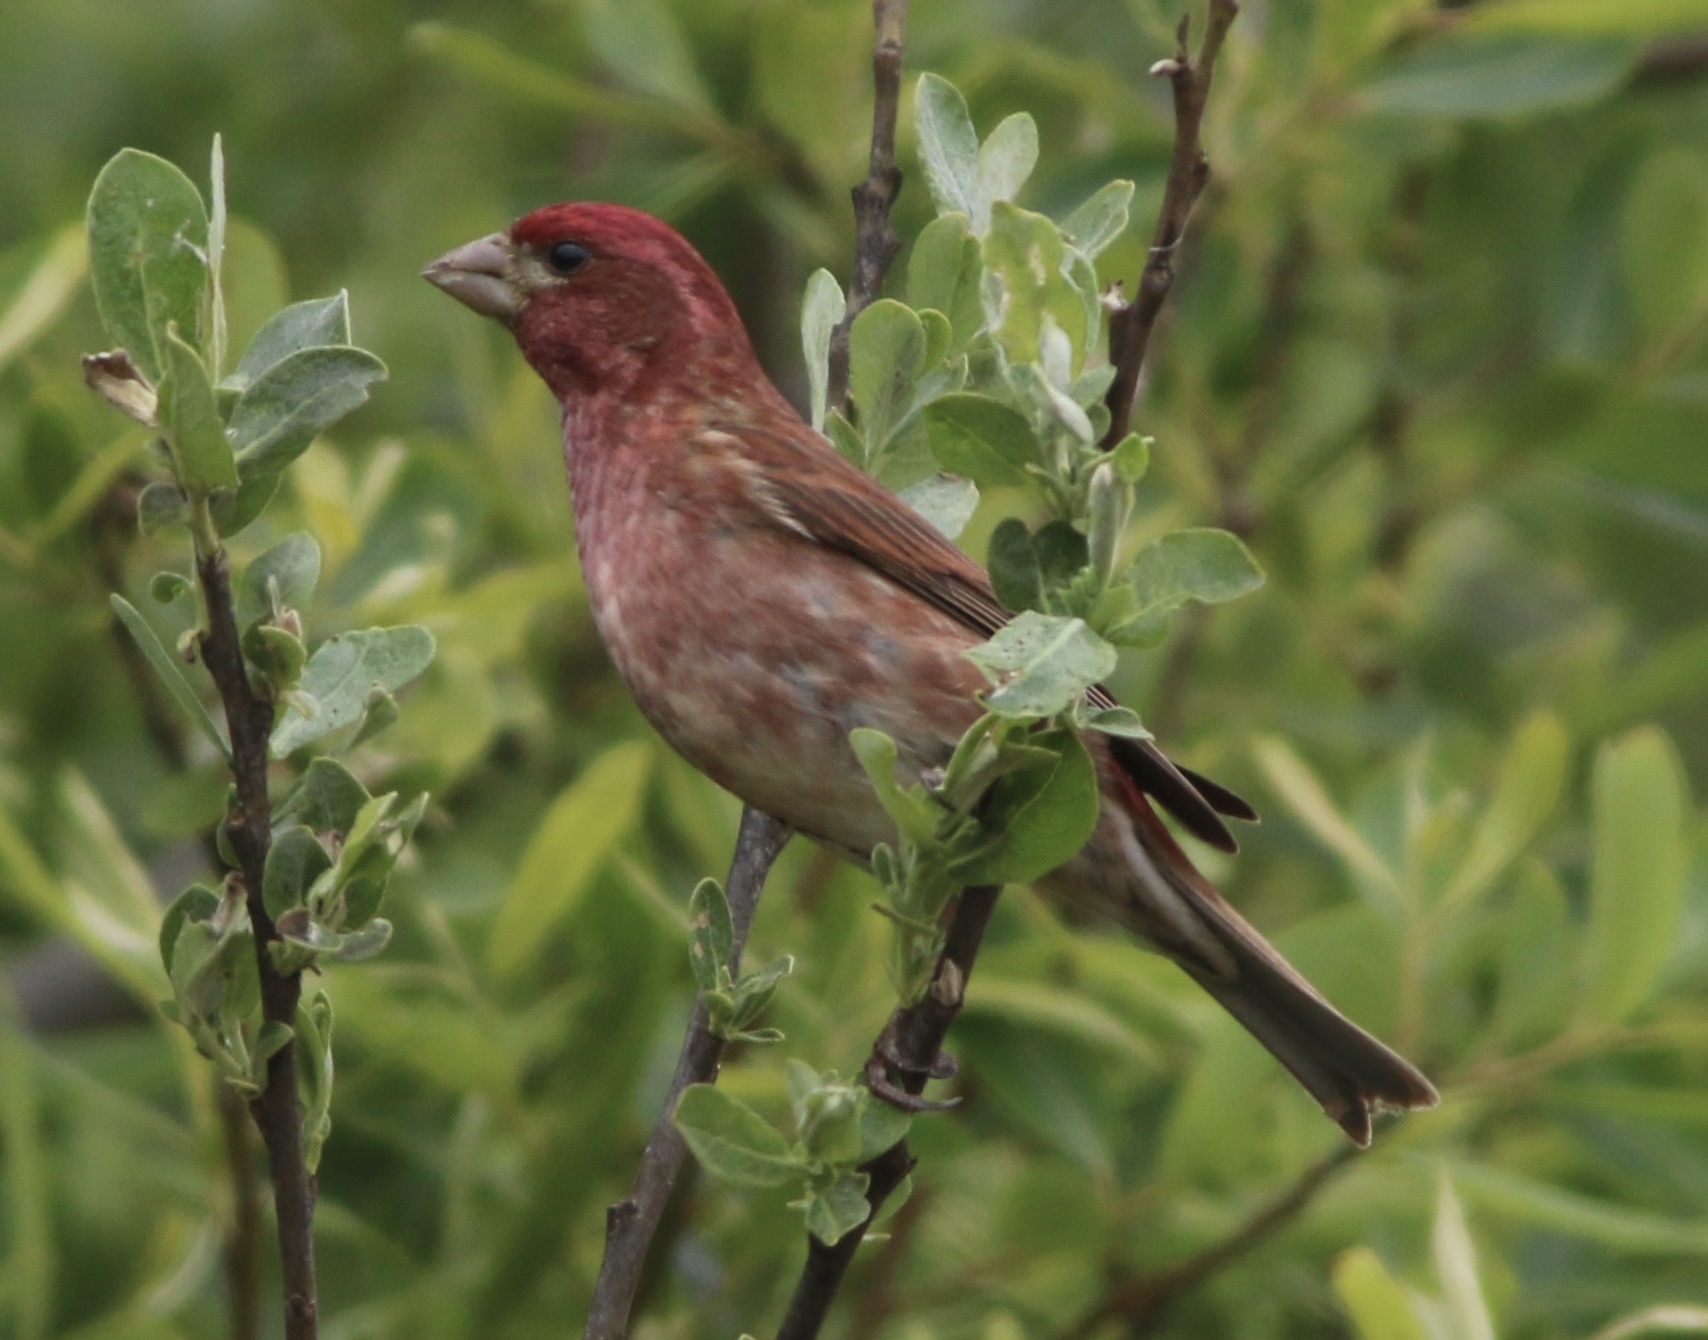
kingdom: Animalia
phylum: Chordata
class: Aves
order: Passeriformes
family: Fringillidae
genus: Haemorhous
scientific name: Haemorhous purpureus
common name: Purple finch
